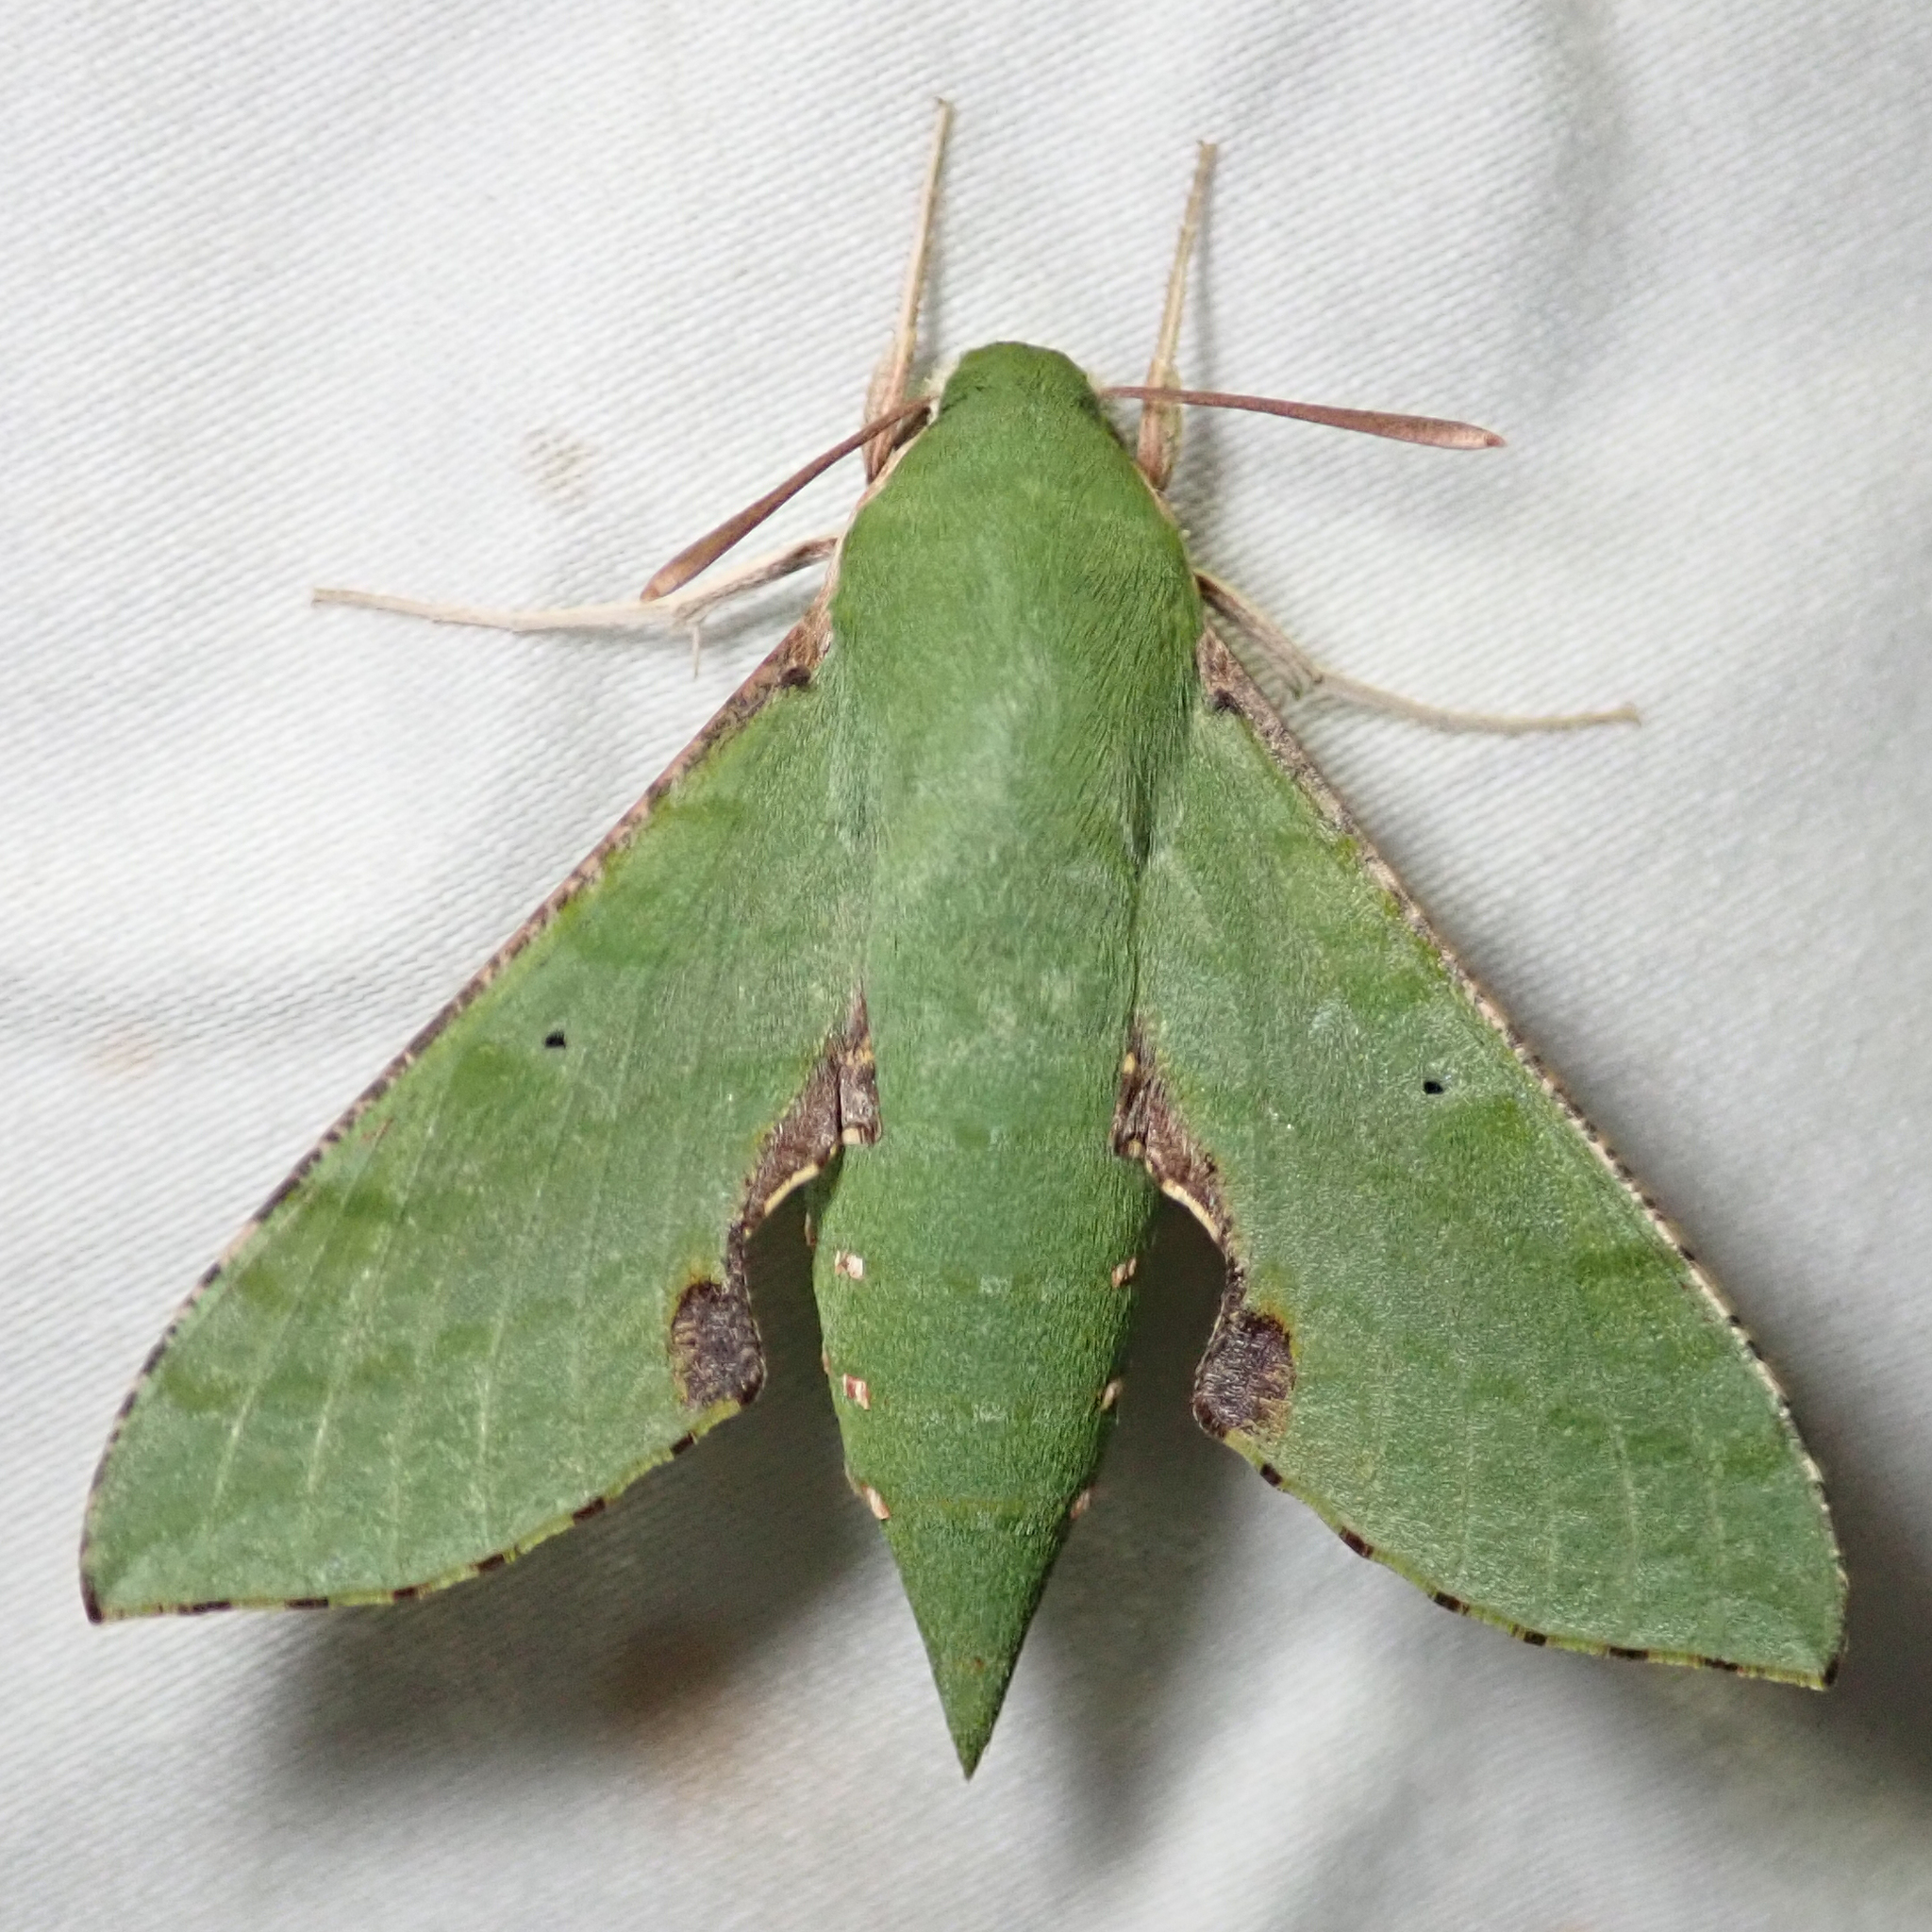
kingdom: Animalia
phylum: Arthropoda
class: Insecta
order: Lepidoptera
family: Sphingidae
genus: Basiothia
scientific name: Basiothia medea
